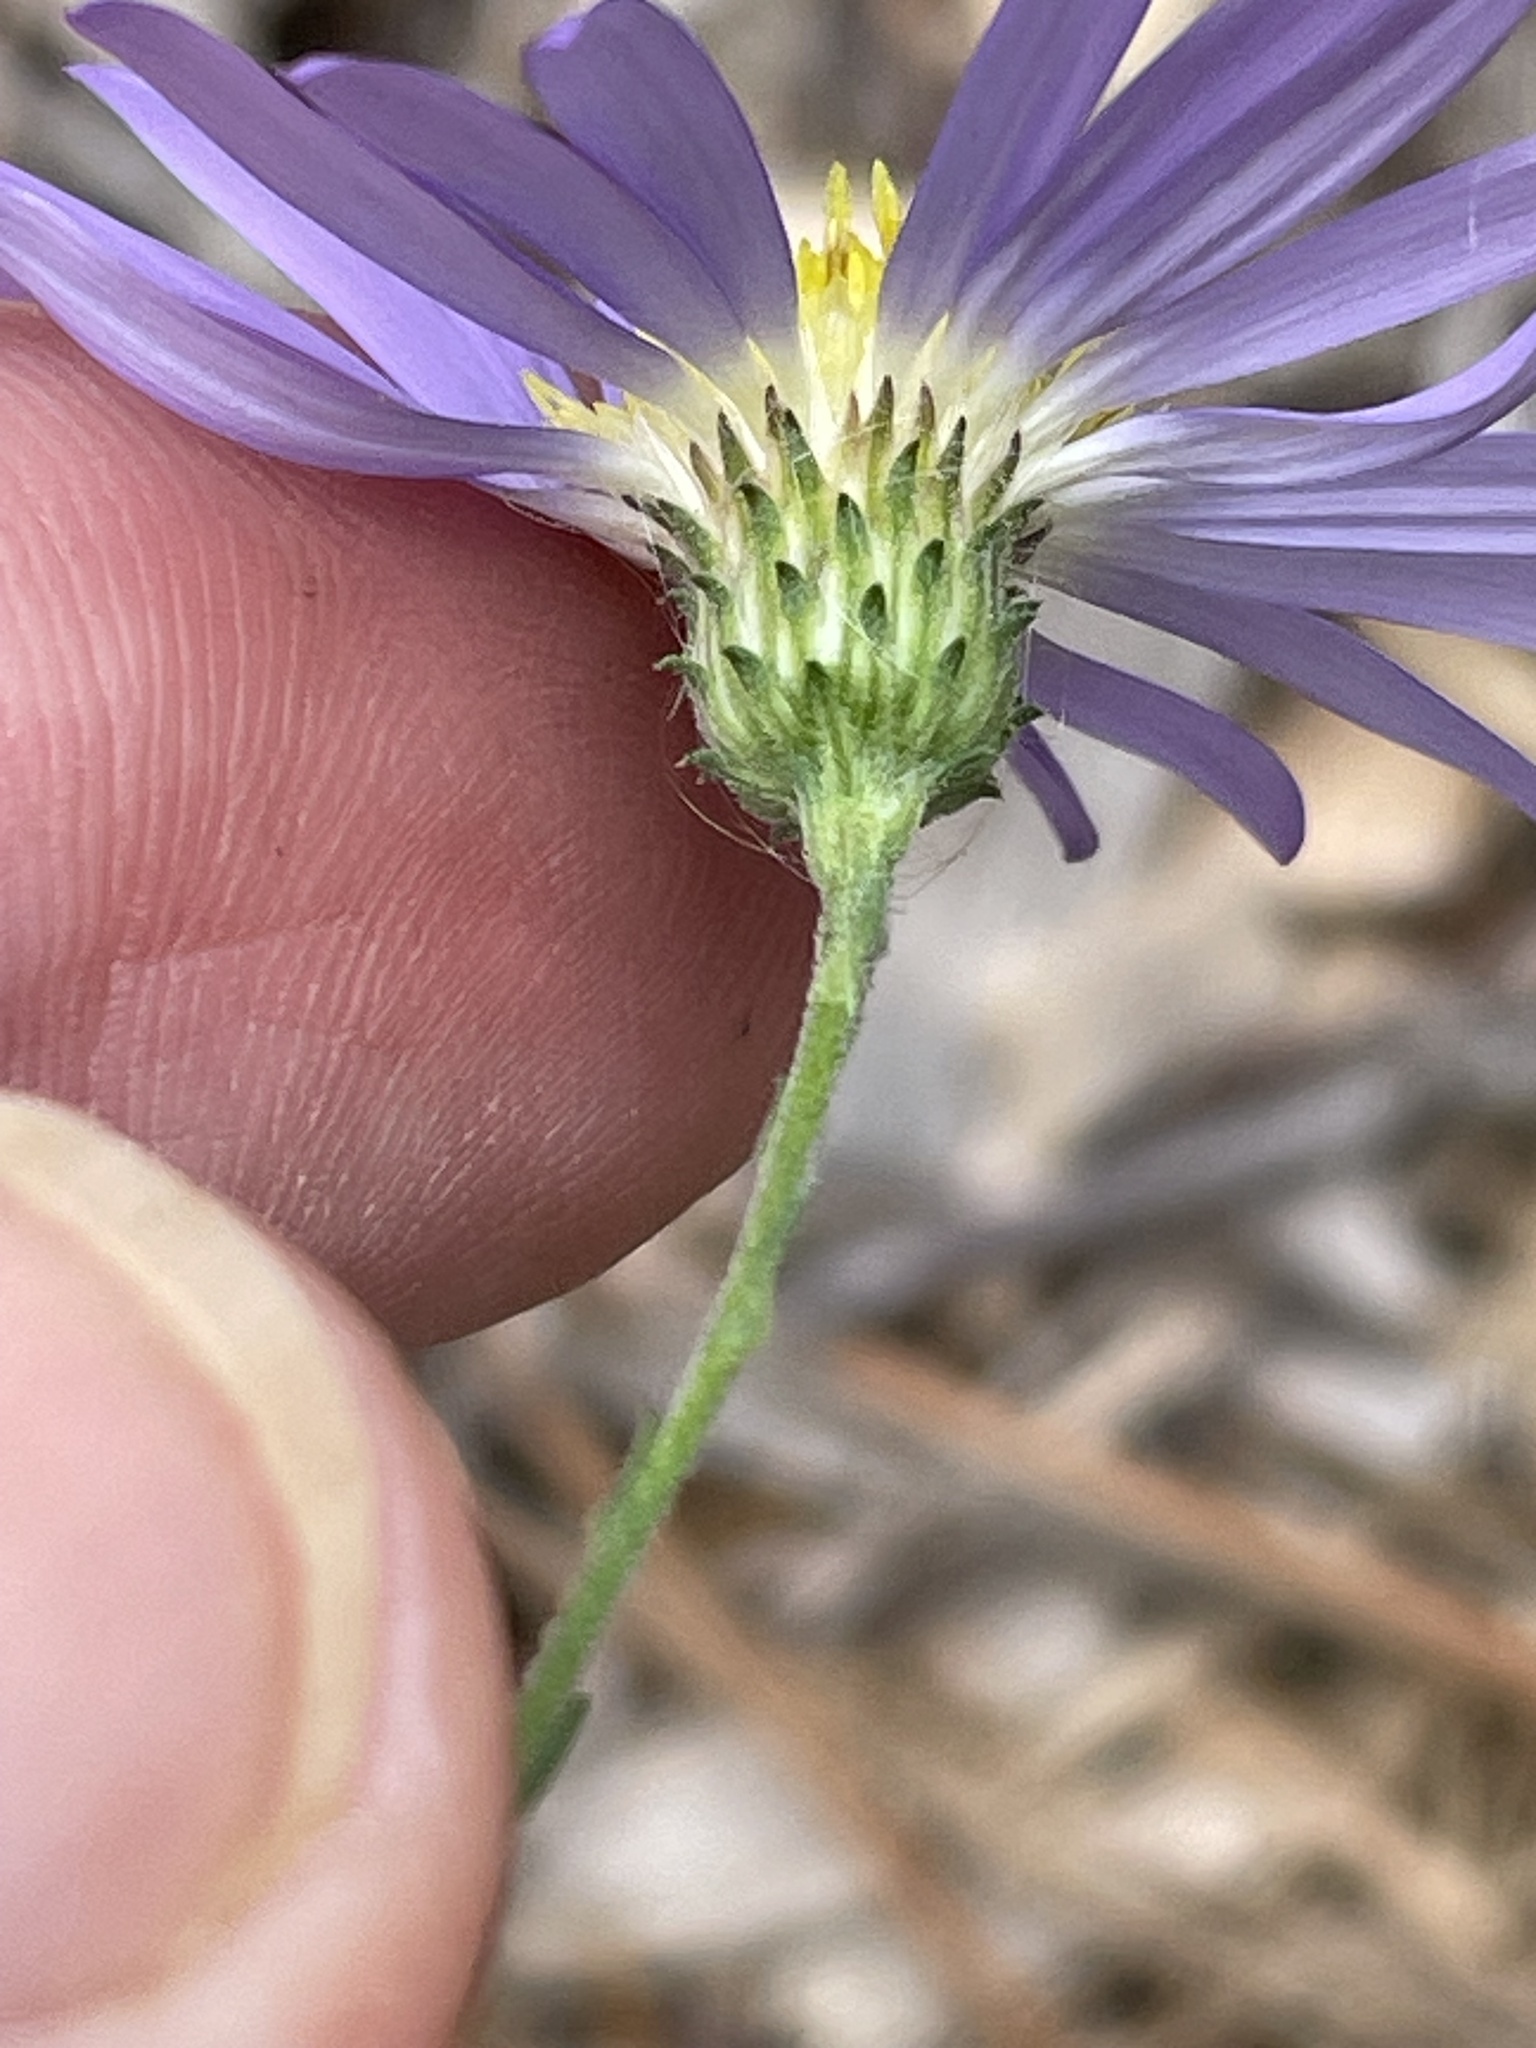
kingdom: Plantae
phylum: Tracheophyta
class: Magnoliopsida
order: Asterales
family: Asteraceae
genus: Symphyotrichum
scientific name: Symphyotrichum patens
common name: Late purple aster
